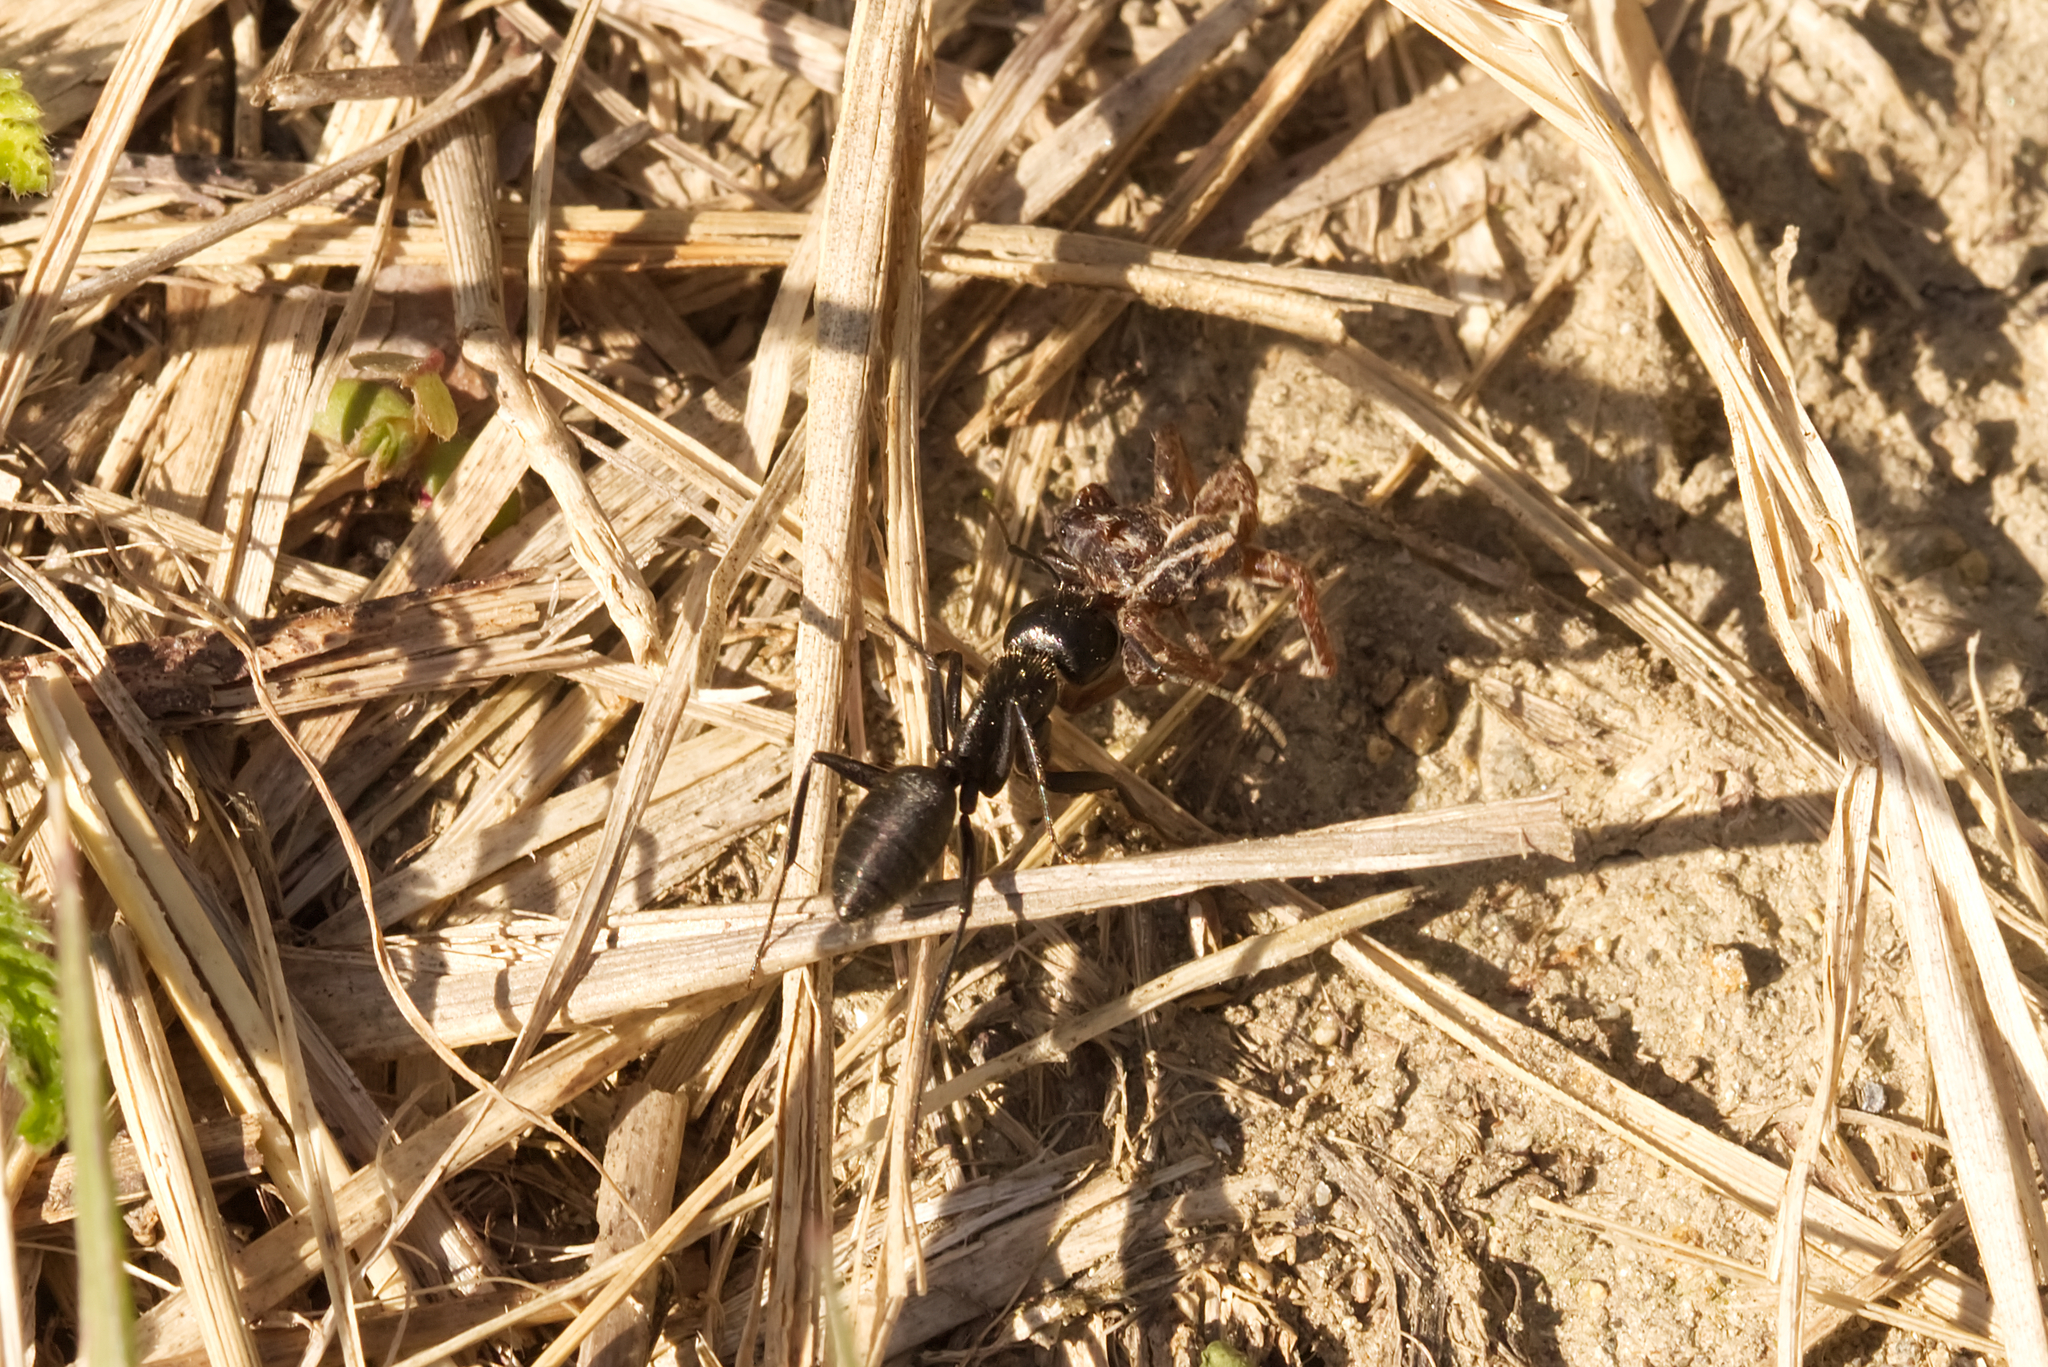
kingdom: Animalia
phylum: Arthropoda
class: Insecta
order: Hymenoptera
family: Formicidae
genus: Camponotus
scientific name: Camponotus vagus
